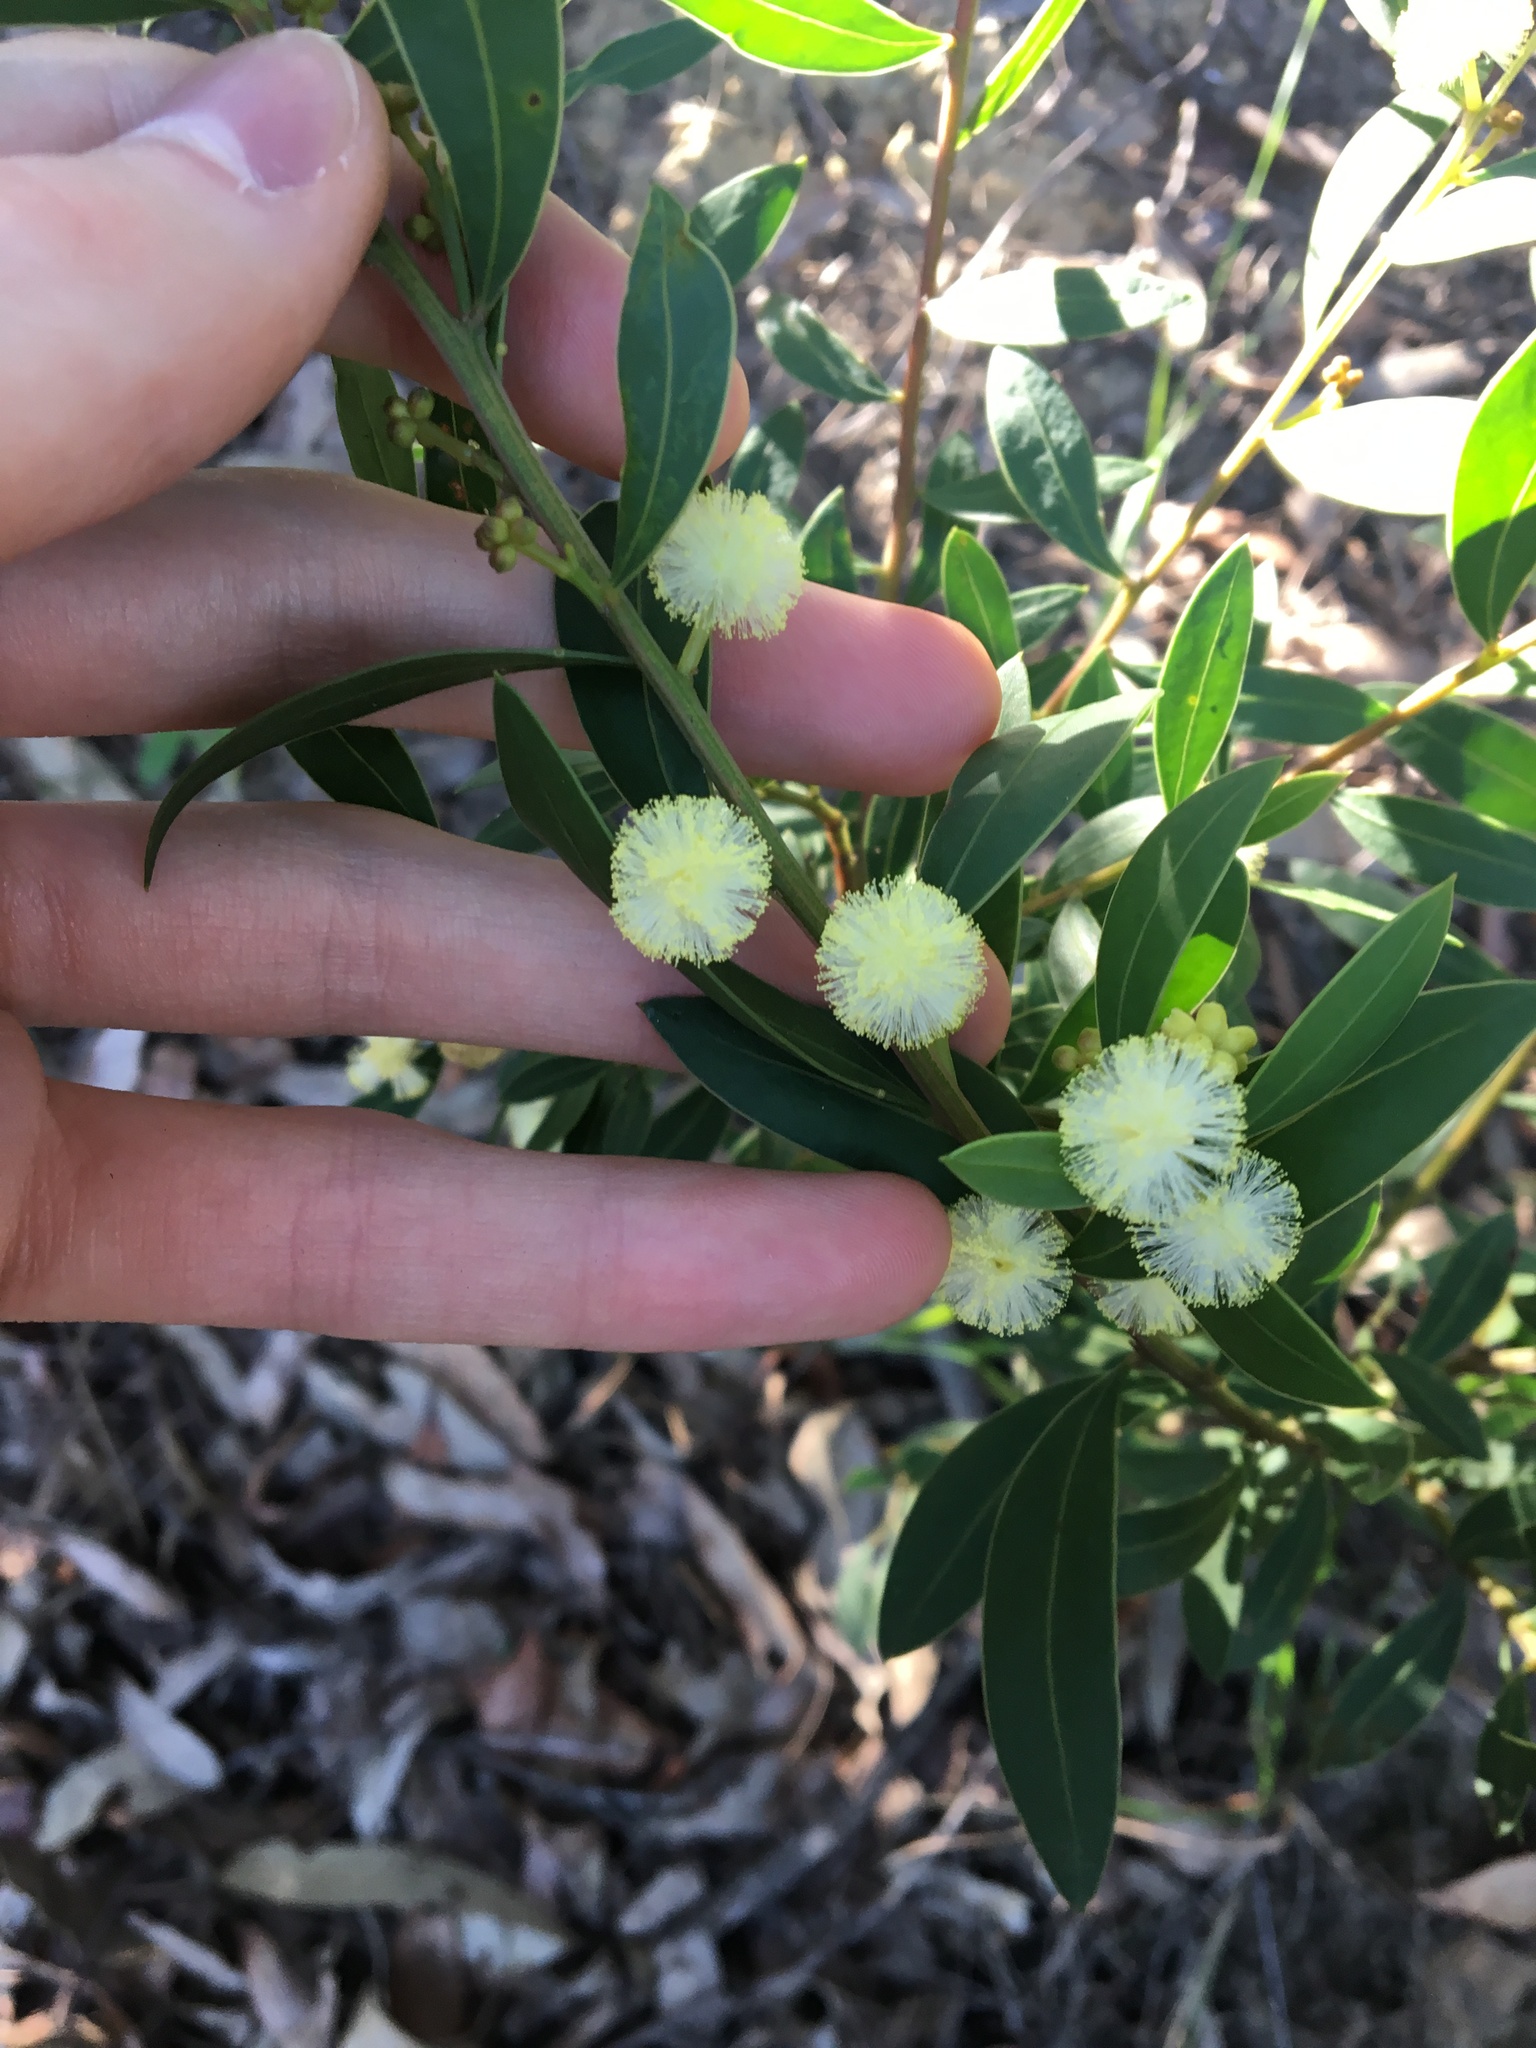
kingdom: Plantae
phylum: Tracheophyta
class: Magnoliopsida
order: Fabales
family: Fabaceae
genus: Acacia
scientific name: Acacia myrtifolia
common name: Myrtle wattle
